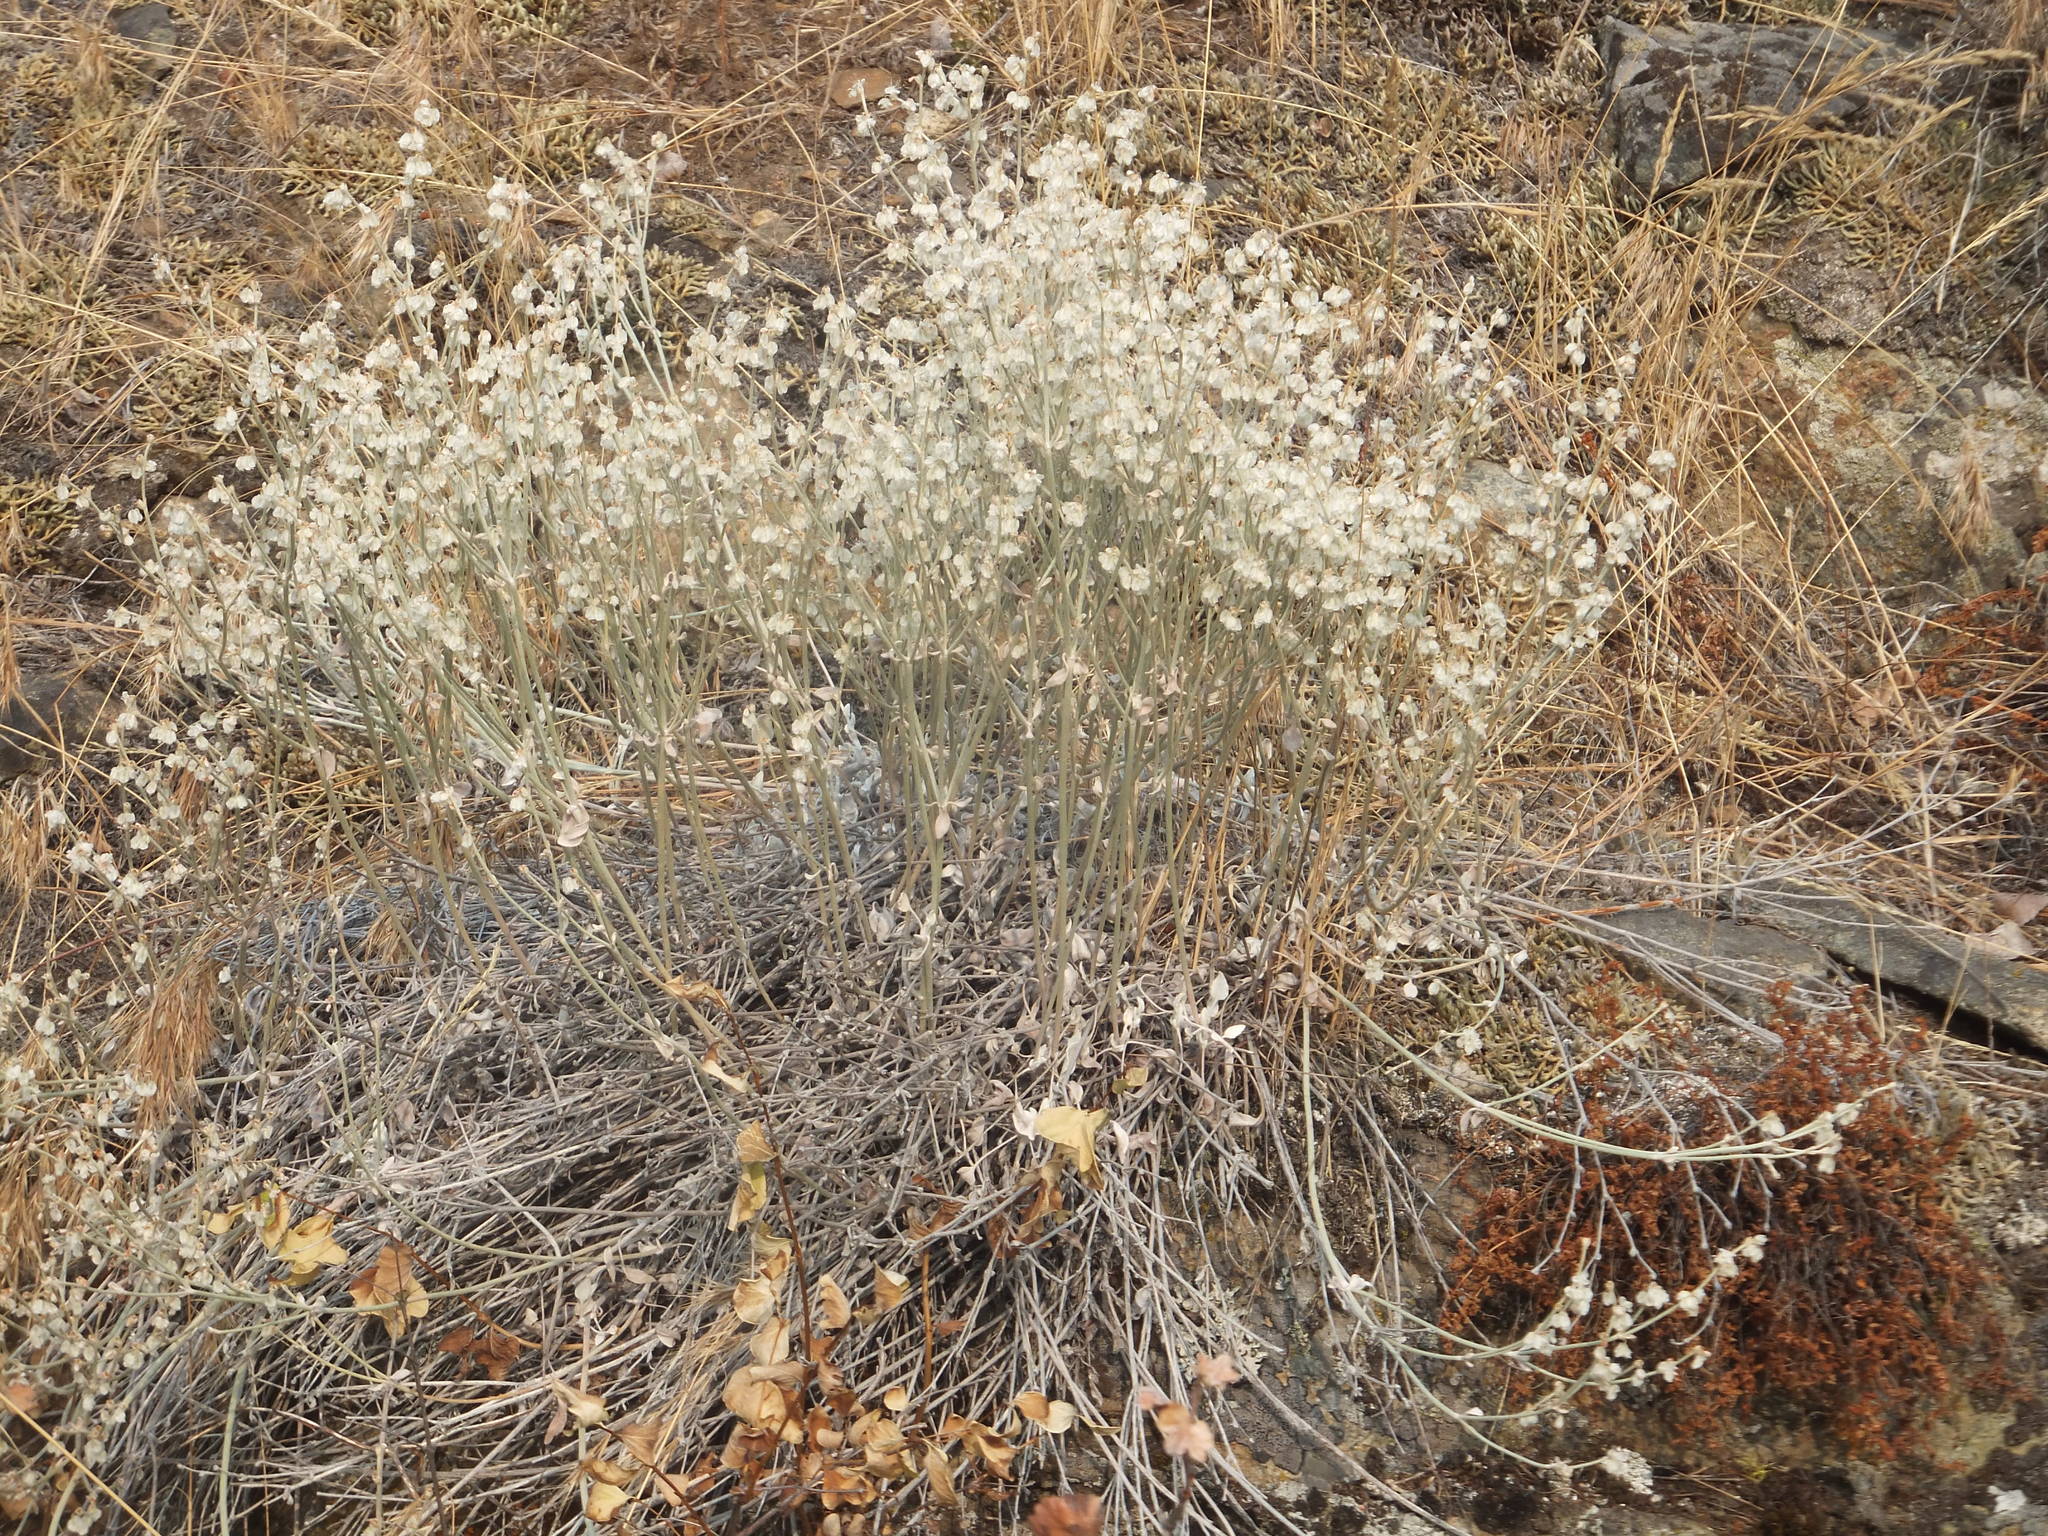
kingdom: Plantae
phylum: Tracheophyta
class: Magnoliopsida
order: Caryophyllales
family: Polygonaceae
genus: Eriogonum
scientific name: Eriogonum niveum
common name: Snow wild buckwheat
